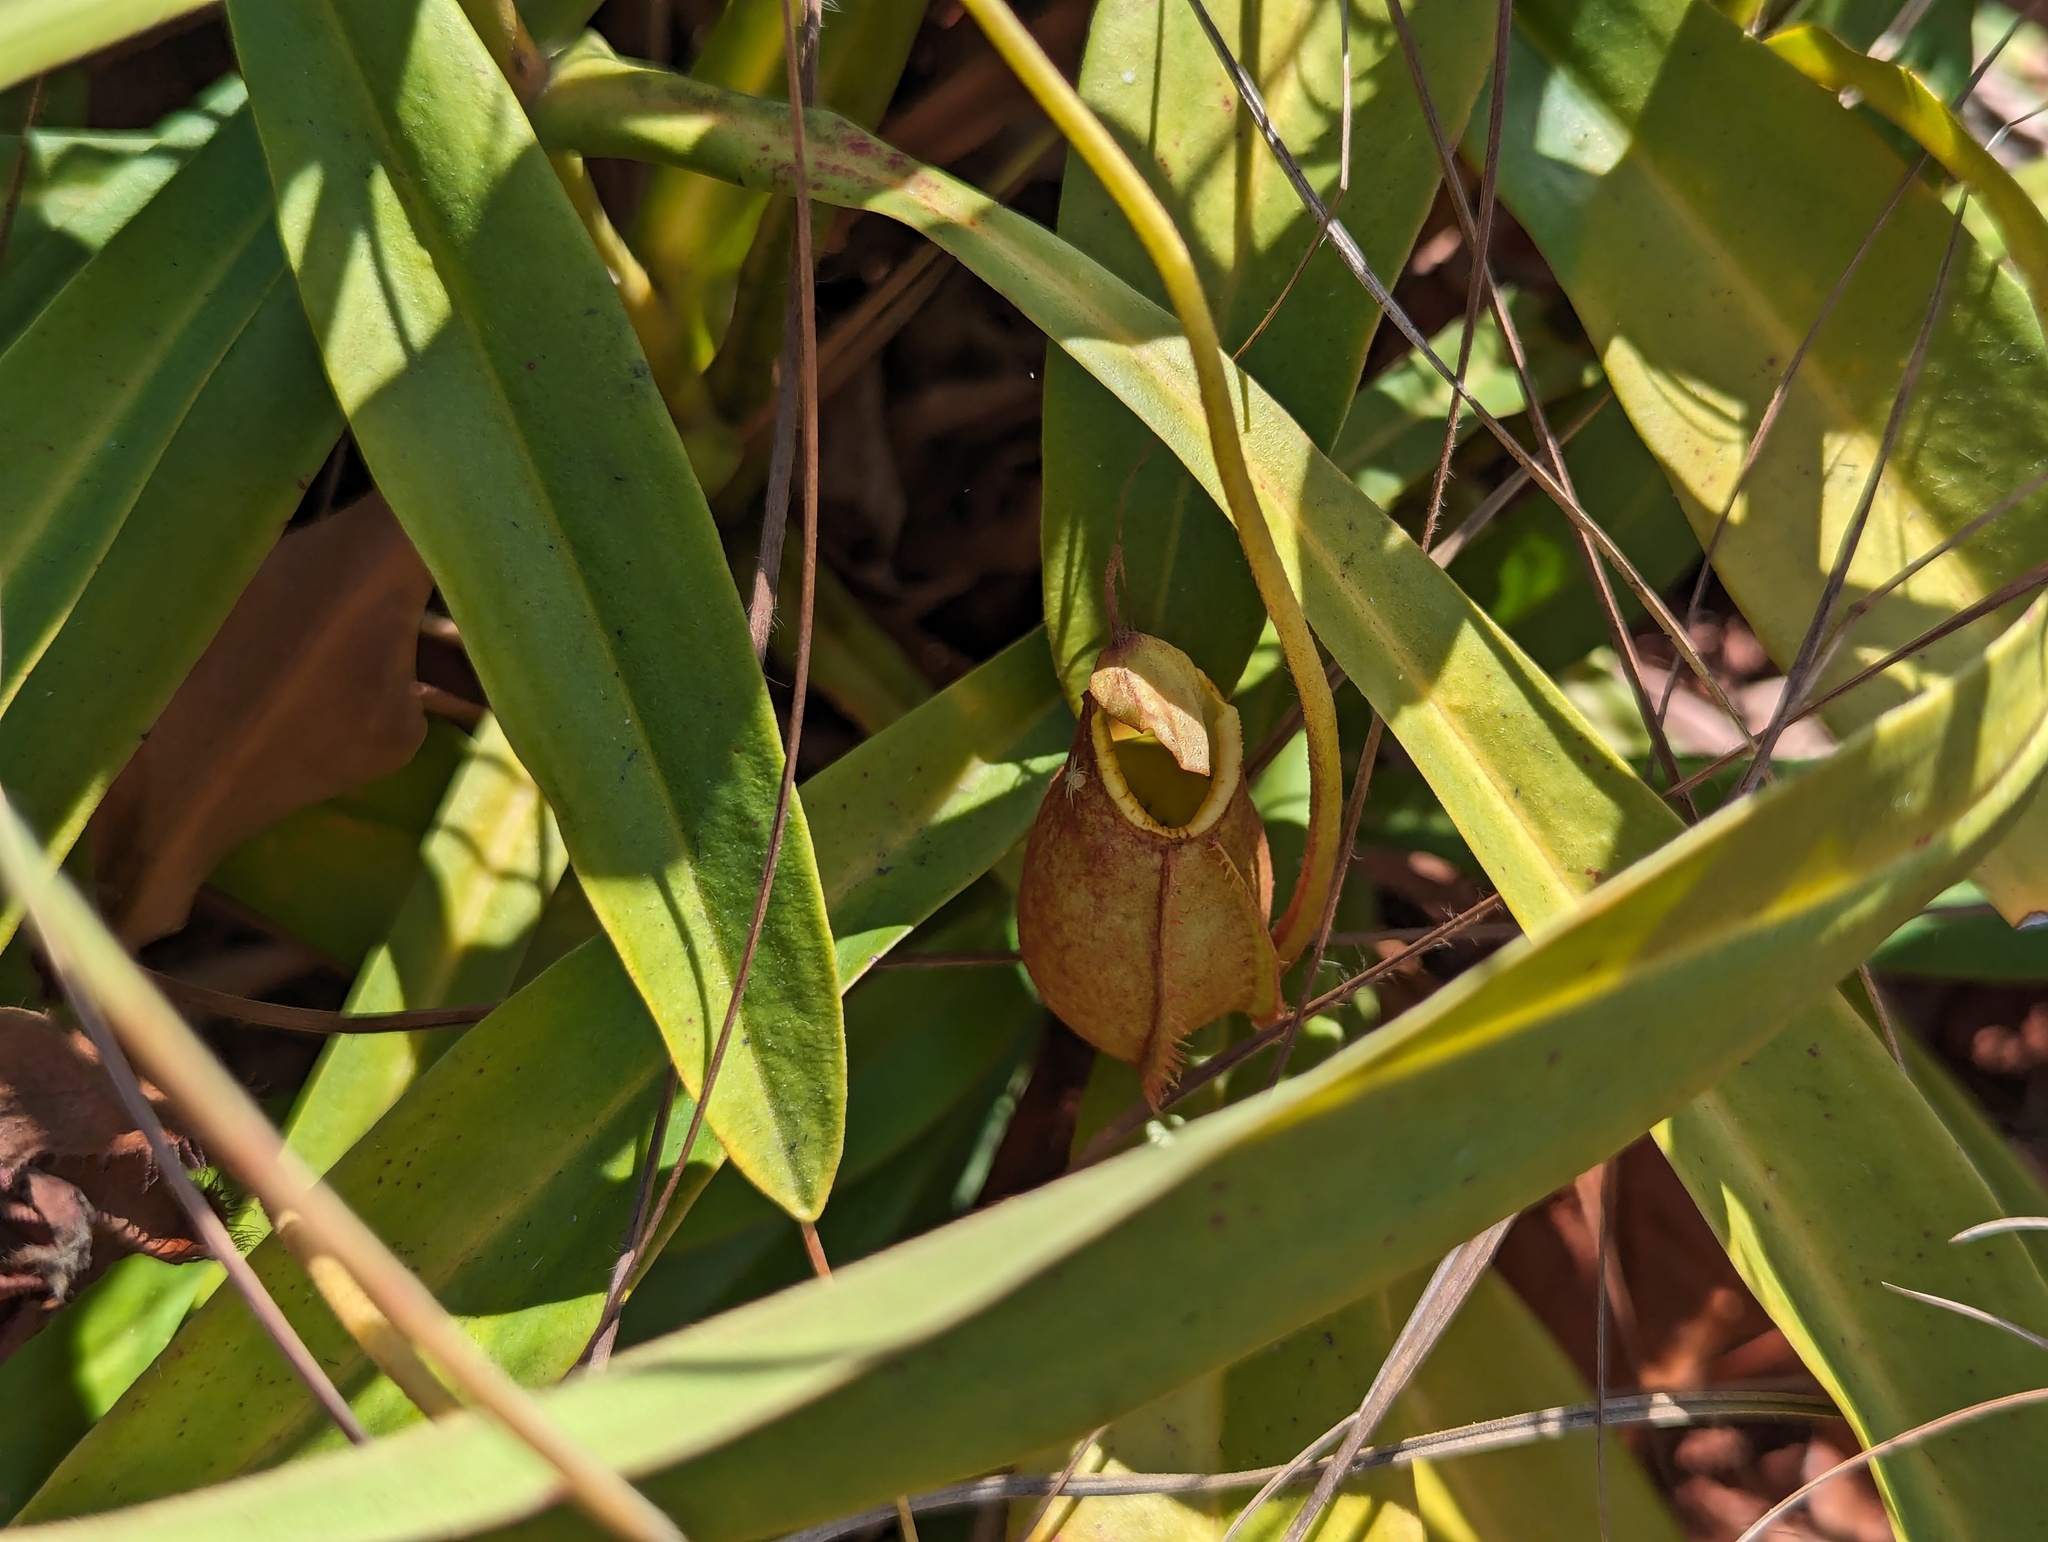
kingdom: Plantae
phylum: Tracheophyta
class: Magnoliopsida
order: Caryophyllales
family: Nepenthaceae
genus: Nepenthes
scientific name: Nepenthes abalata
